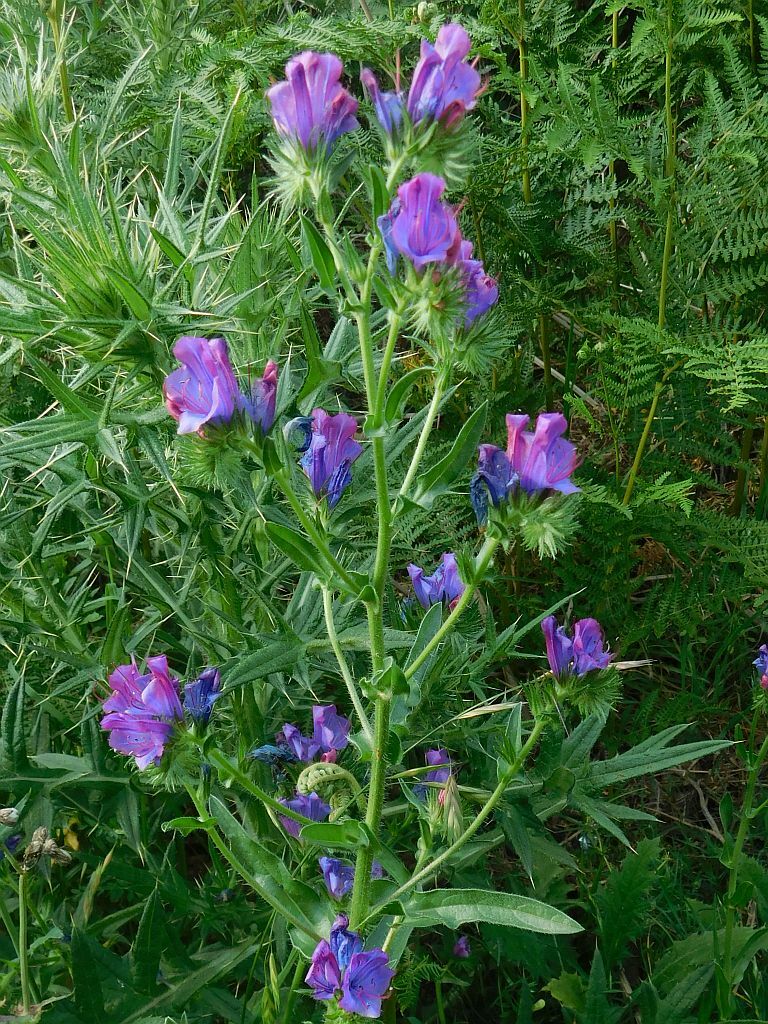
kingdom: Plantae
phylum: Tracheophyta
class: Magnoliopsida
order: Boraginales
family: Boraginaceae
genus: Echium
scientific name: Echium plantagineum
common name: Purple viper's-bugloss
